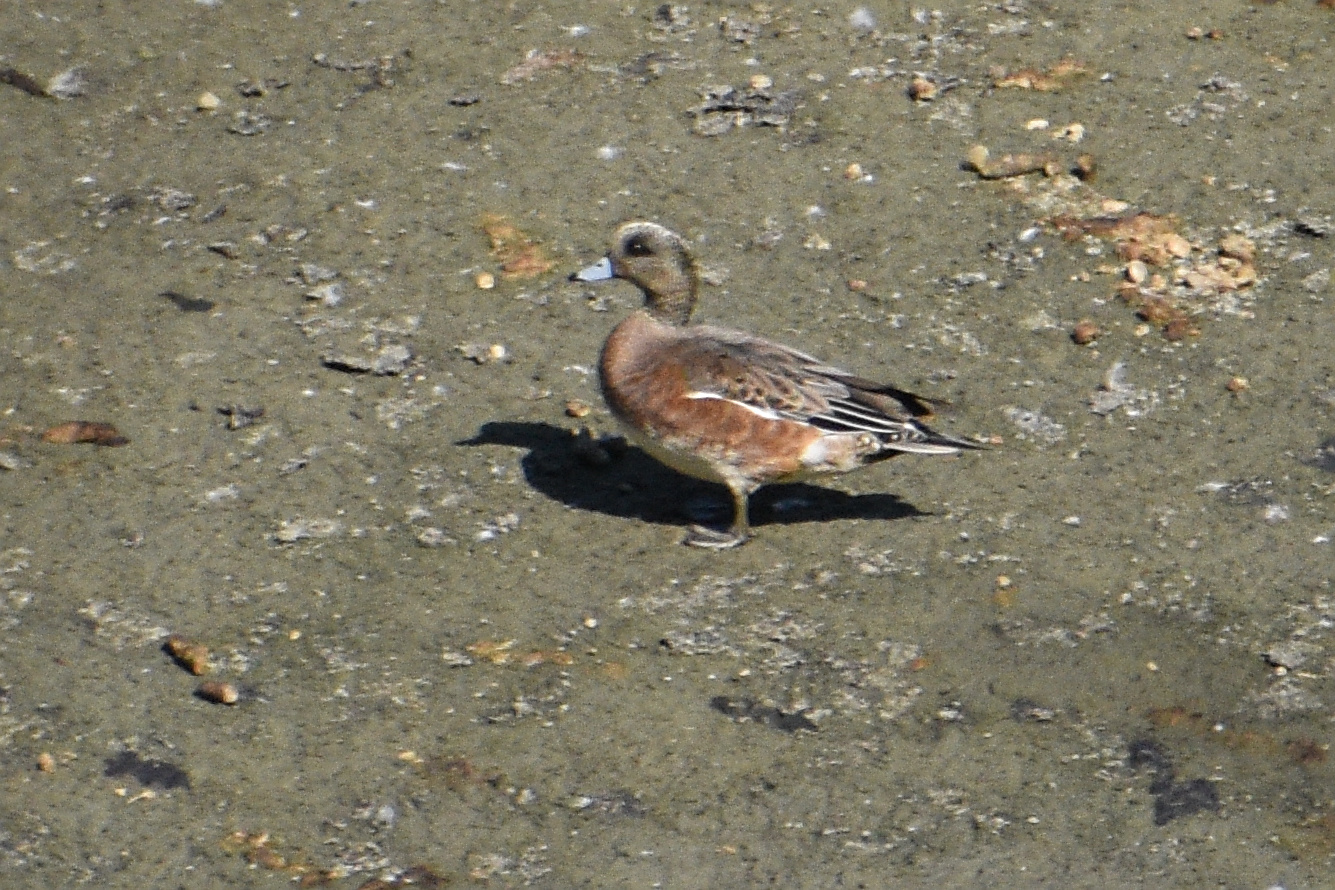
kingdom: Animalia
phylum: Chordata
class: Aves
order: Anseriformes
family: Anatidae
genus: Mareca
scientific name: Mareca americana
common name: American wigeon
